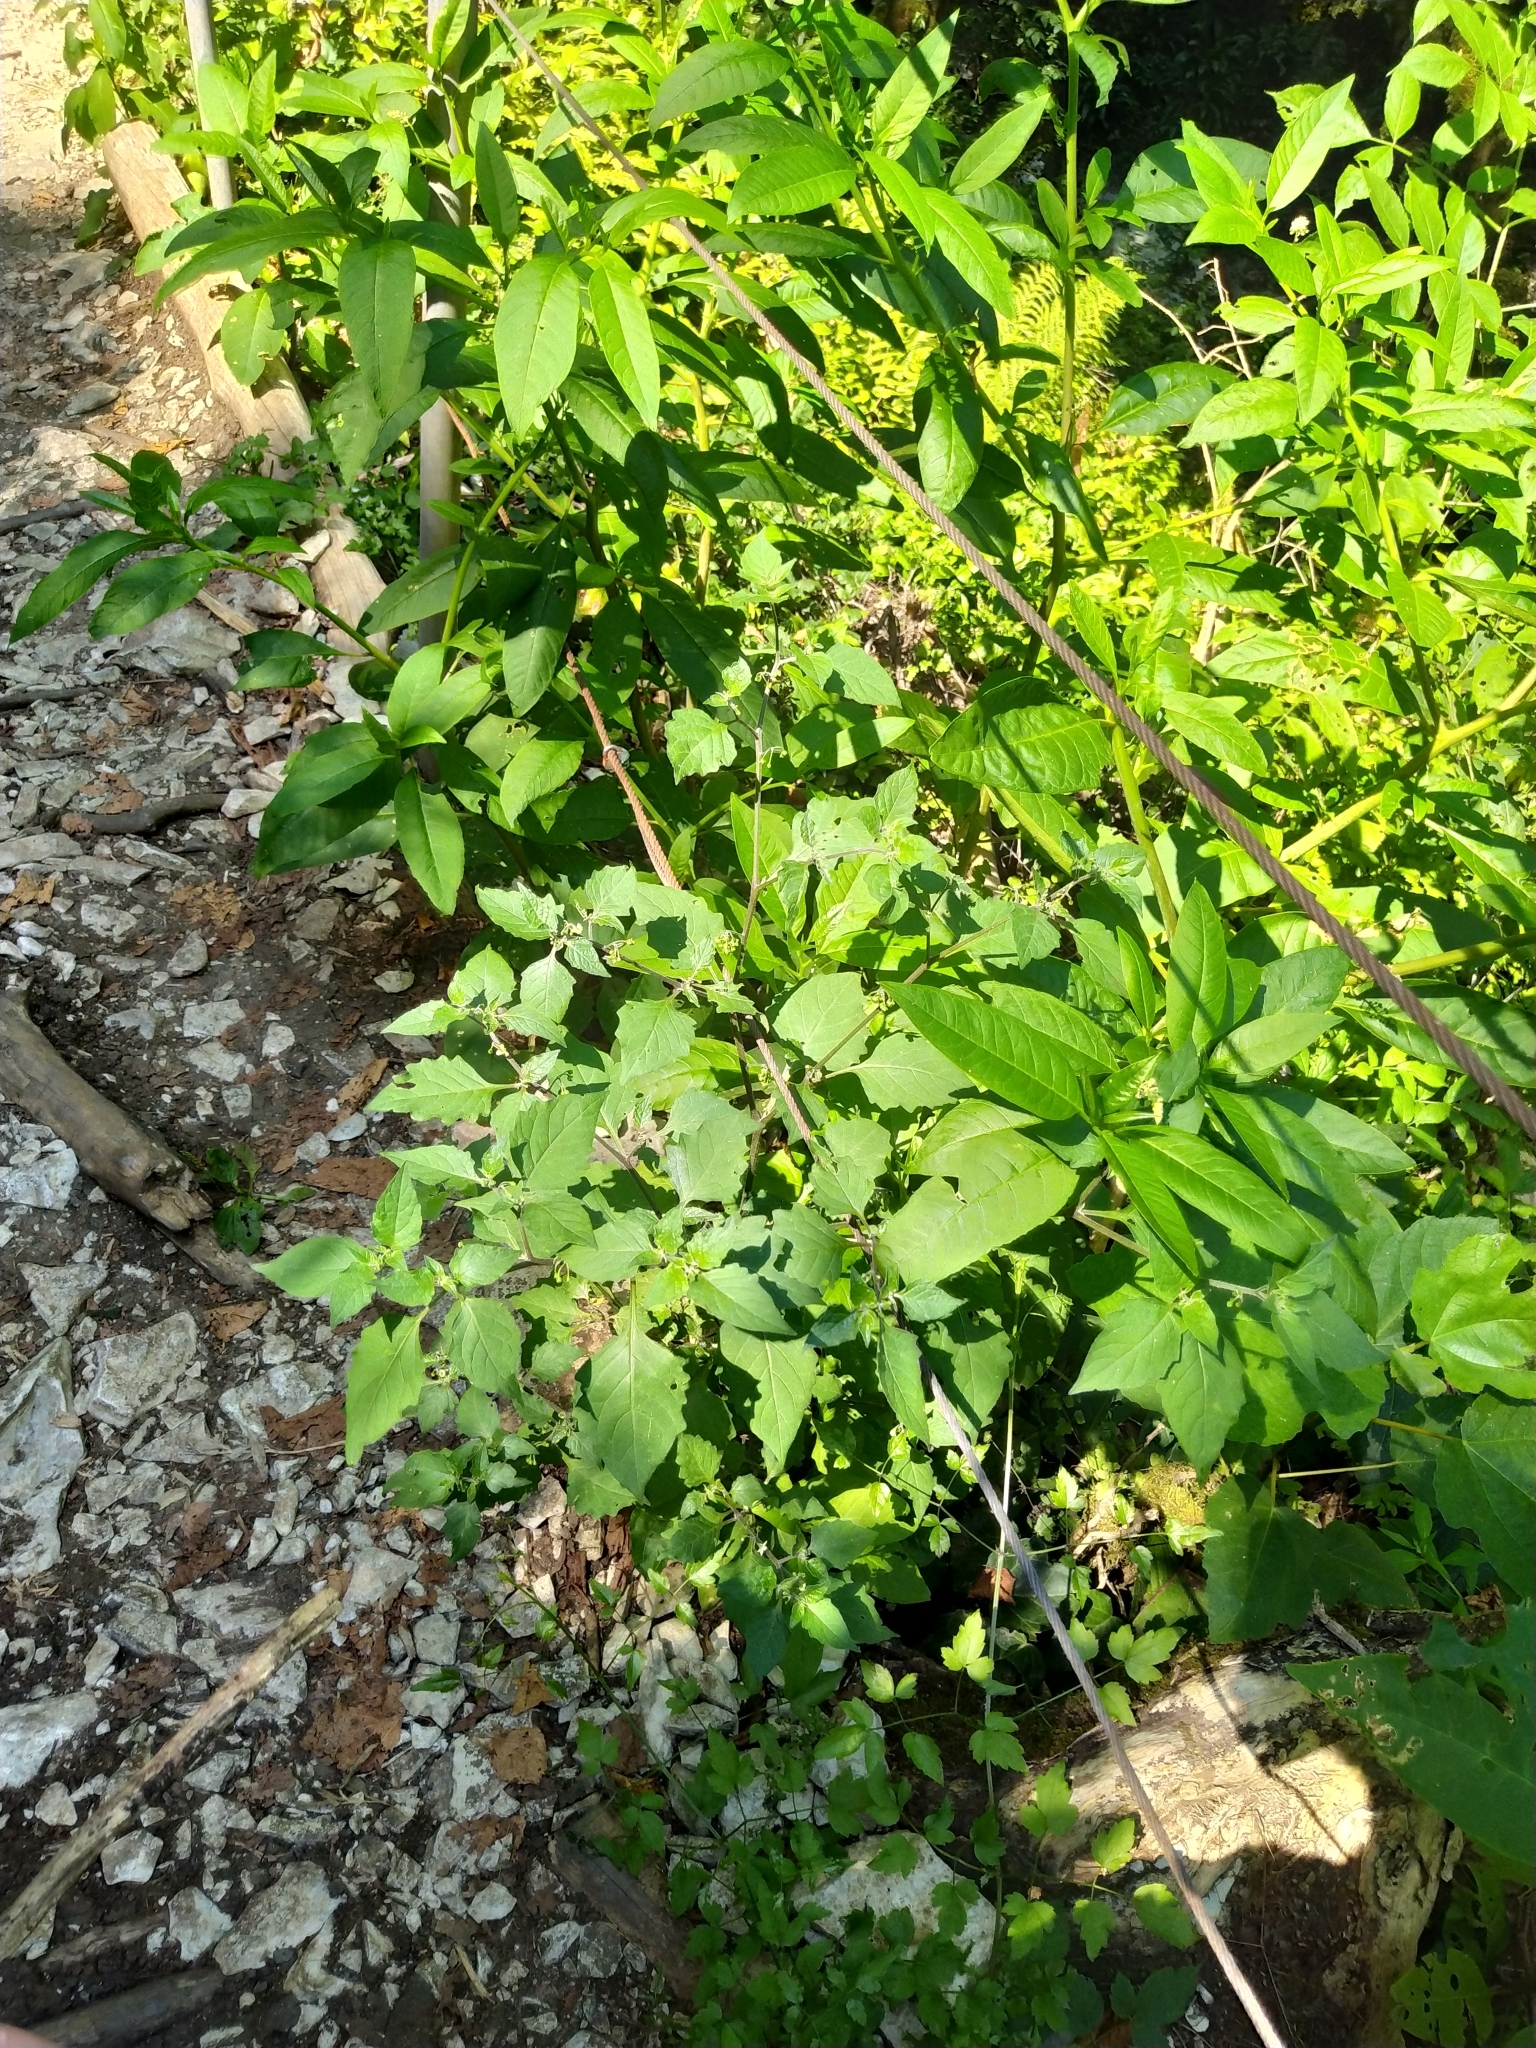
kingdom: Plantae
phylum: Tracheophyta
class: Magnoliopsida
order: Solanales
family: Solanaceae
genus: Solanum
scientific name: Solanum nigrum
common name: Black nightshade
